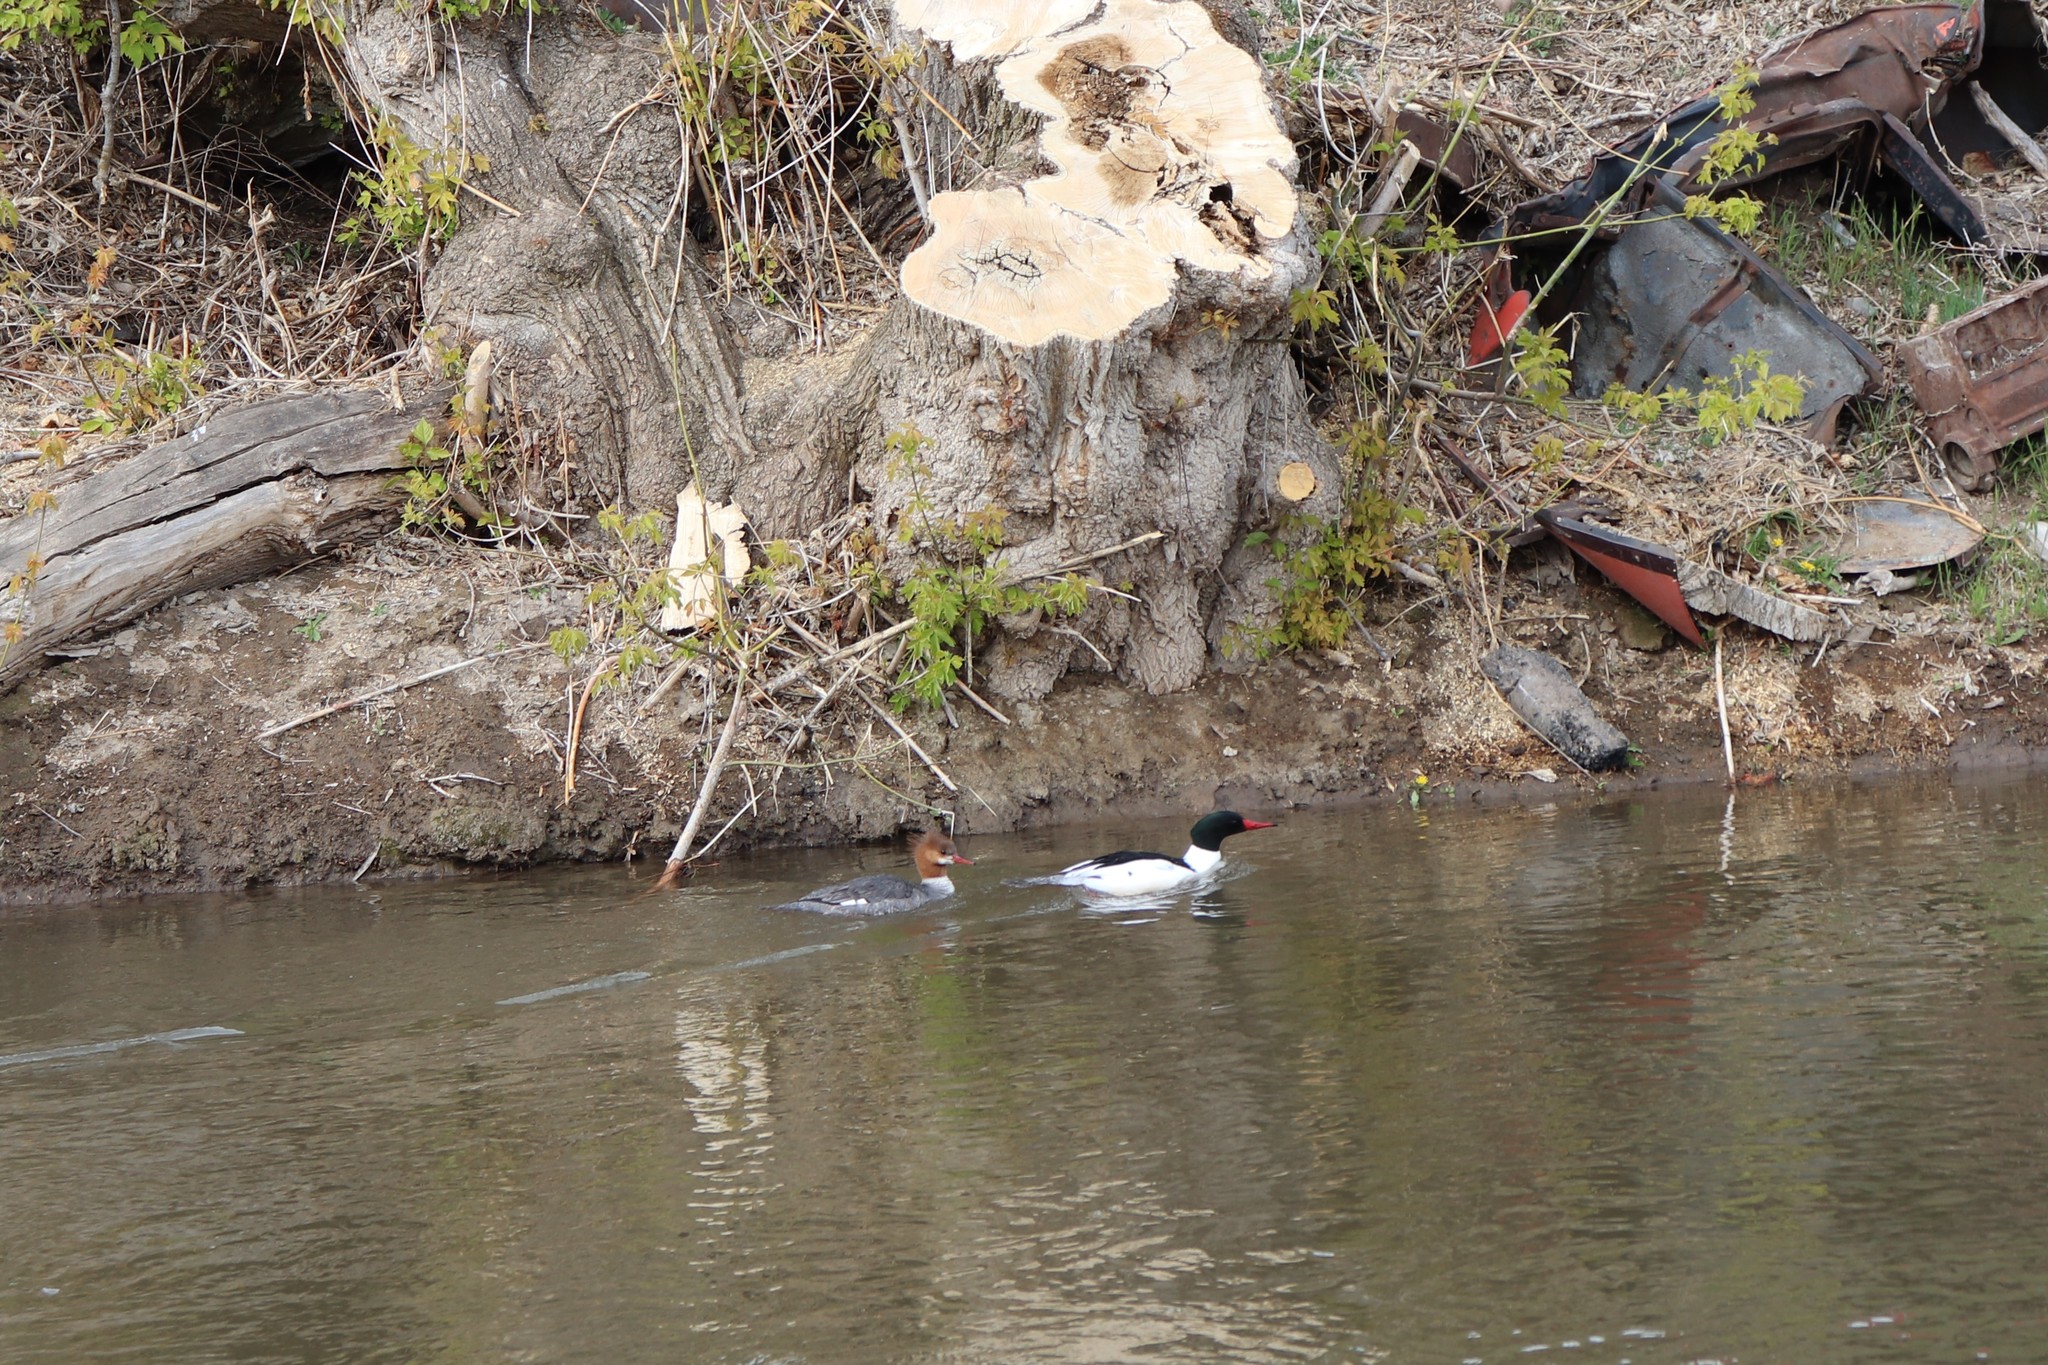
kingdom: Animalia
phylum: Chordata
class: Aves
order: Anseriformes
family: Anatidae
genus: Mergus
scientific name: Mergus merganser
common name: Common merganser
